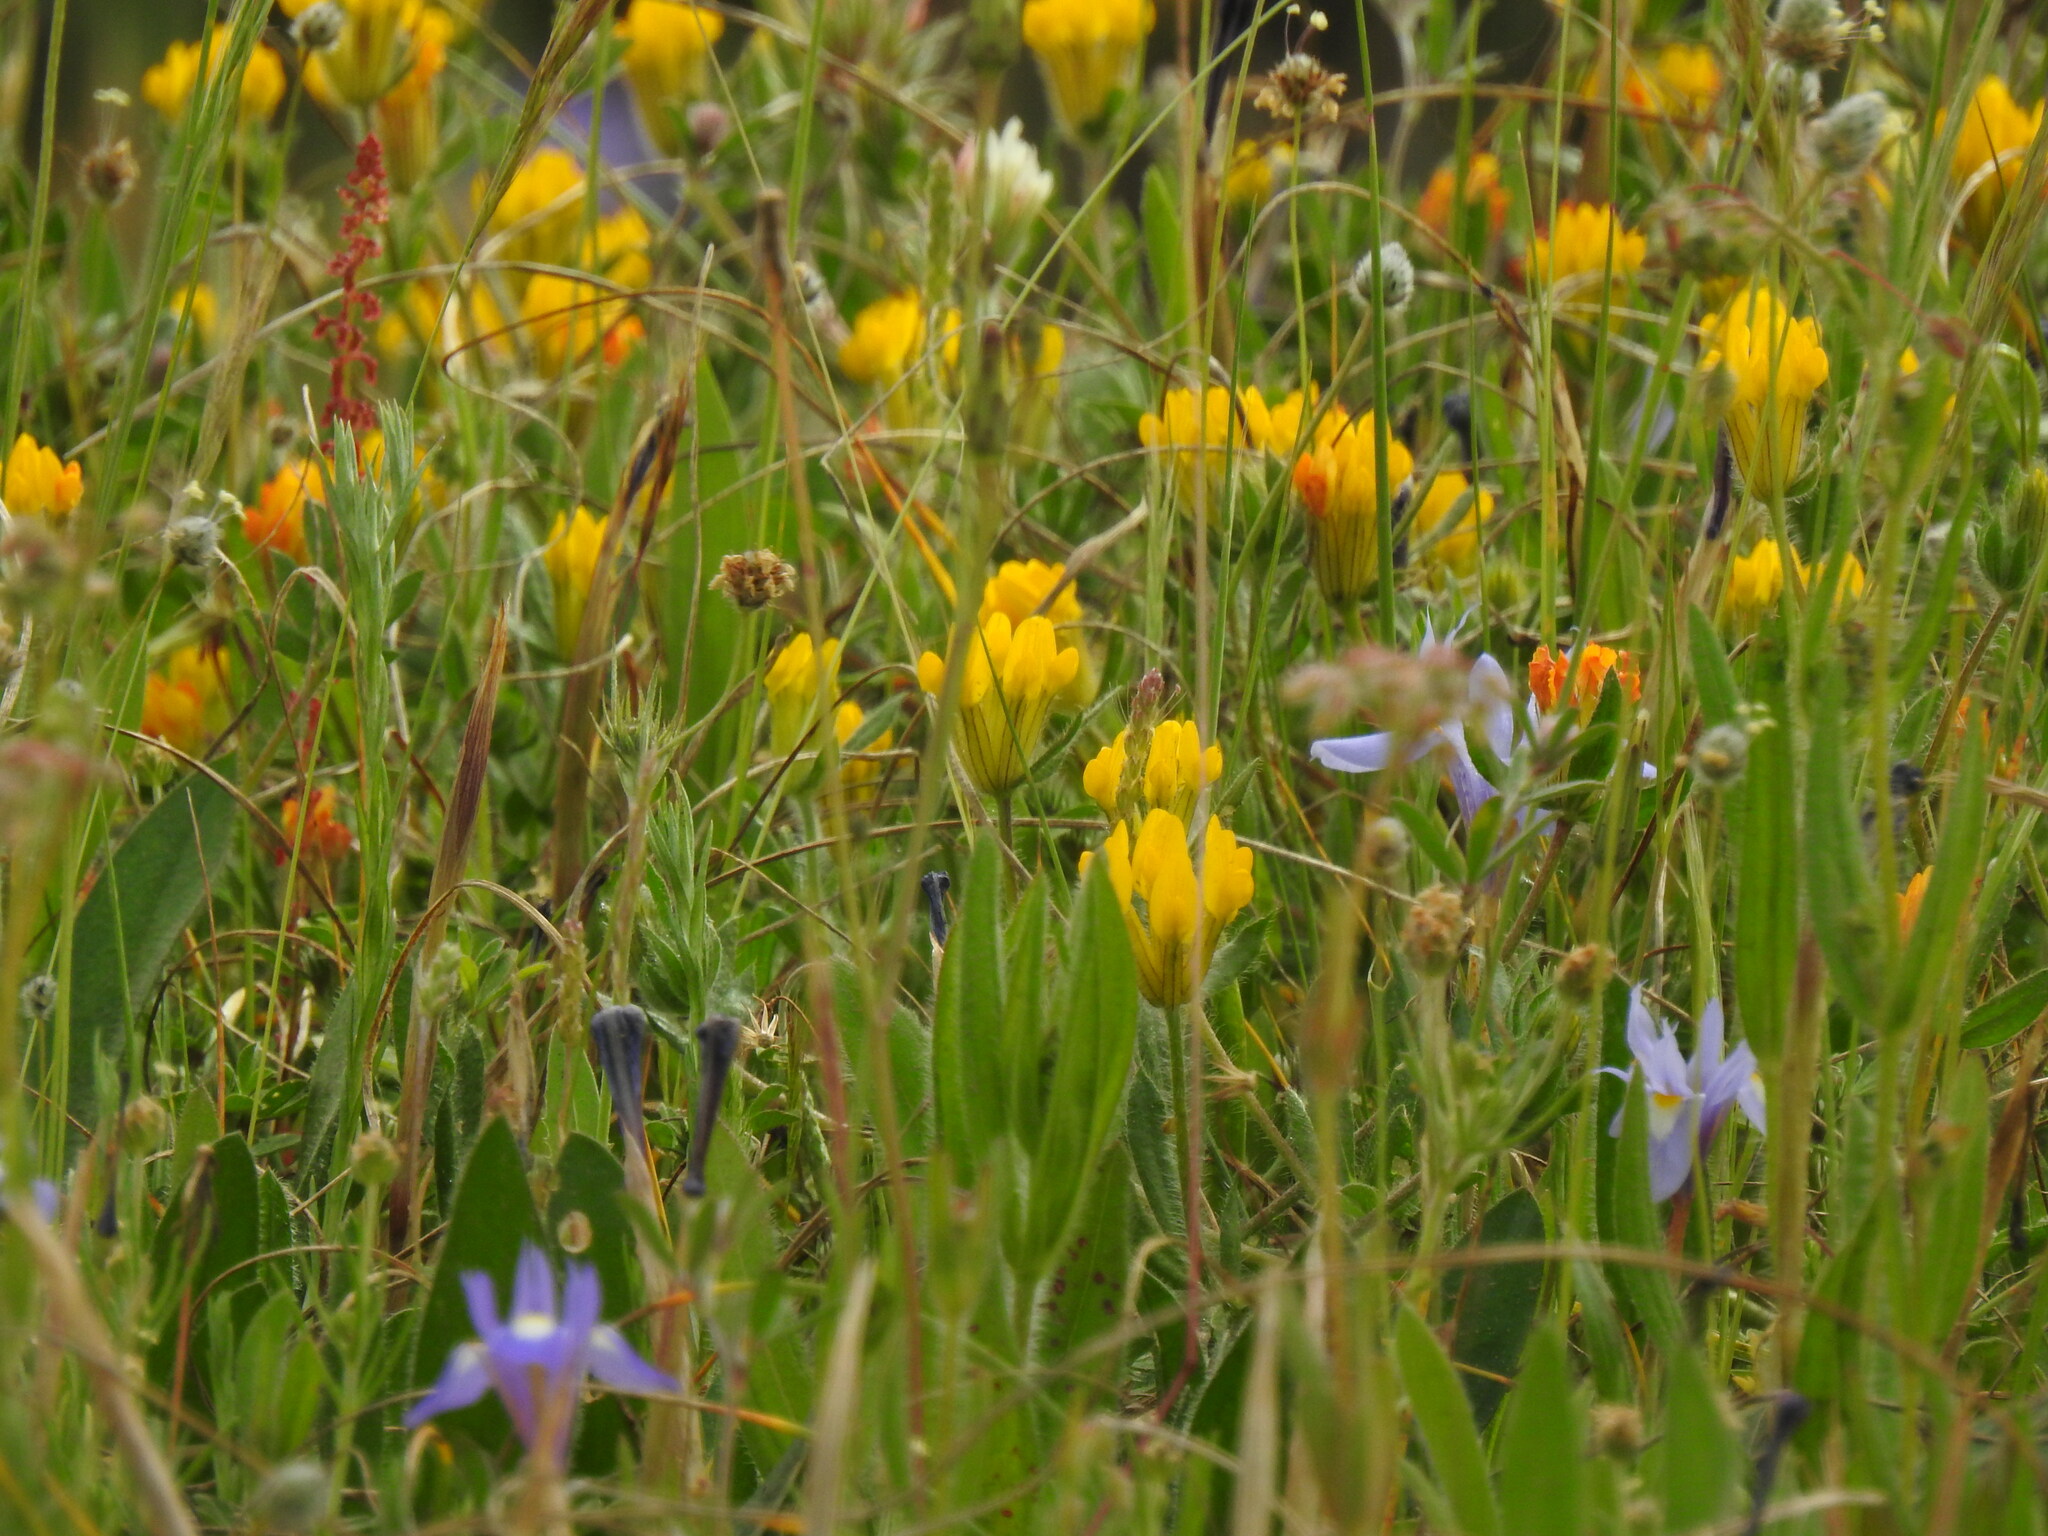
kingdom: Plantae
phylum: Tracheophyta
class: Magnoliopsida
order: Fabales
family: Fabaceae
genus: Anthyllis
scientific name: Anthyllis lotoides
